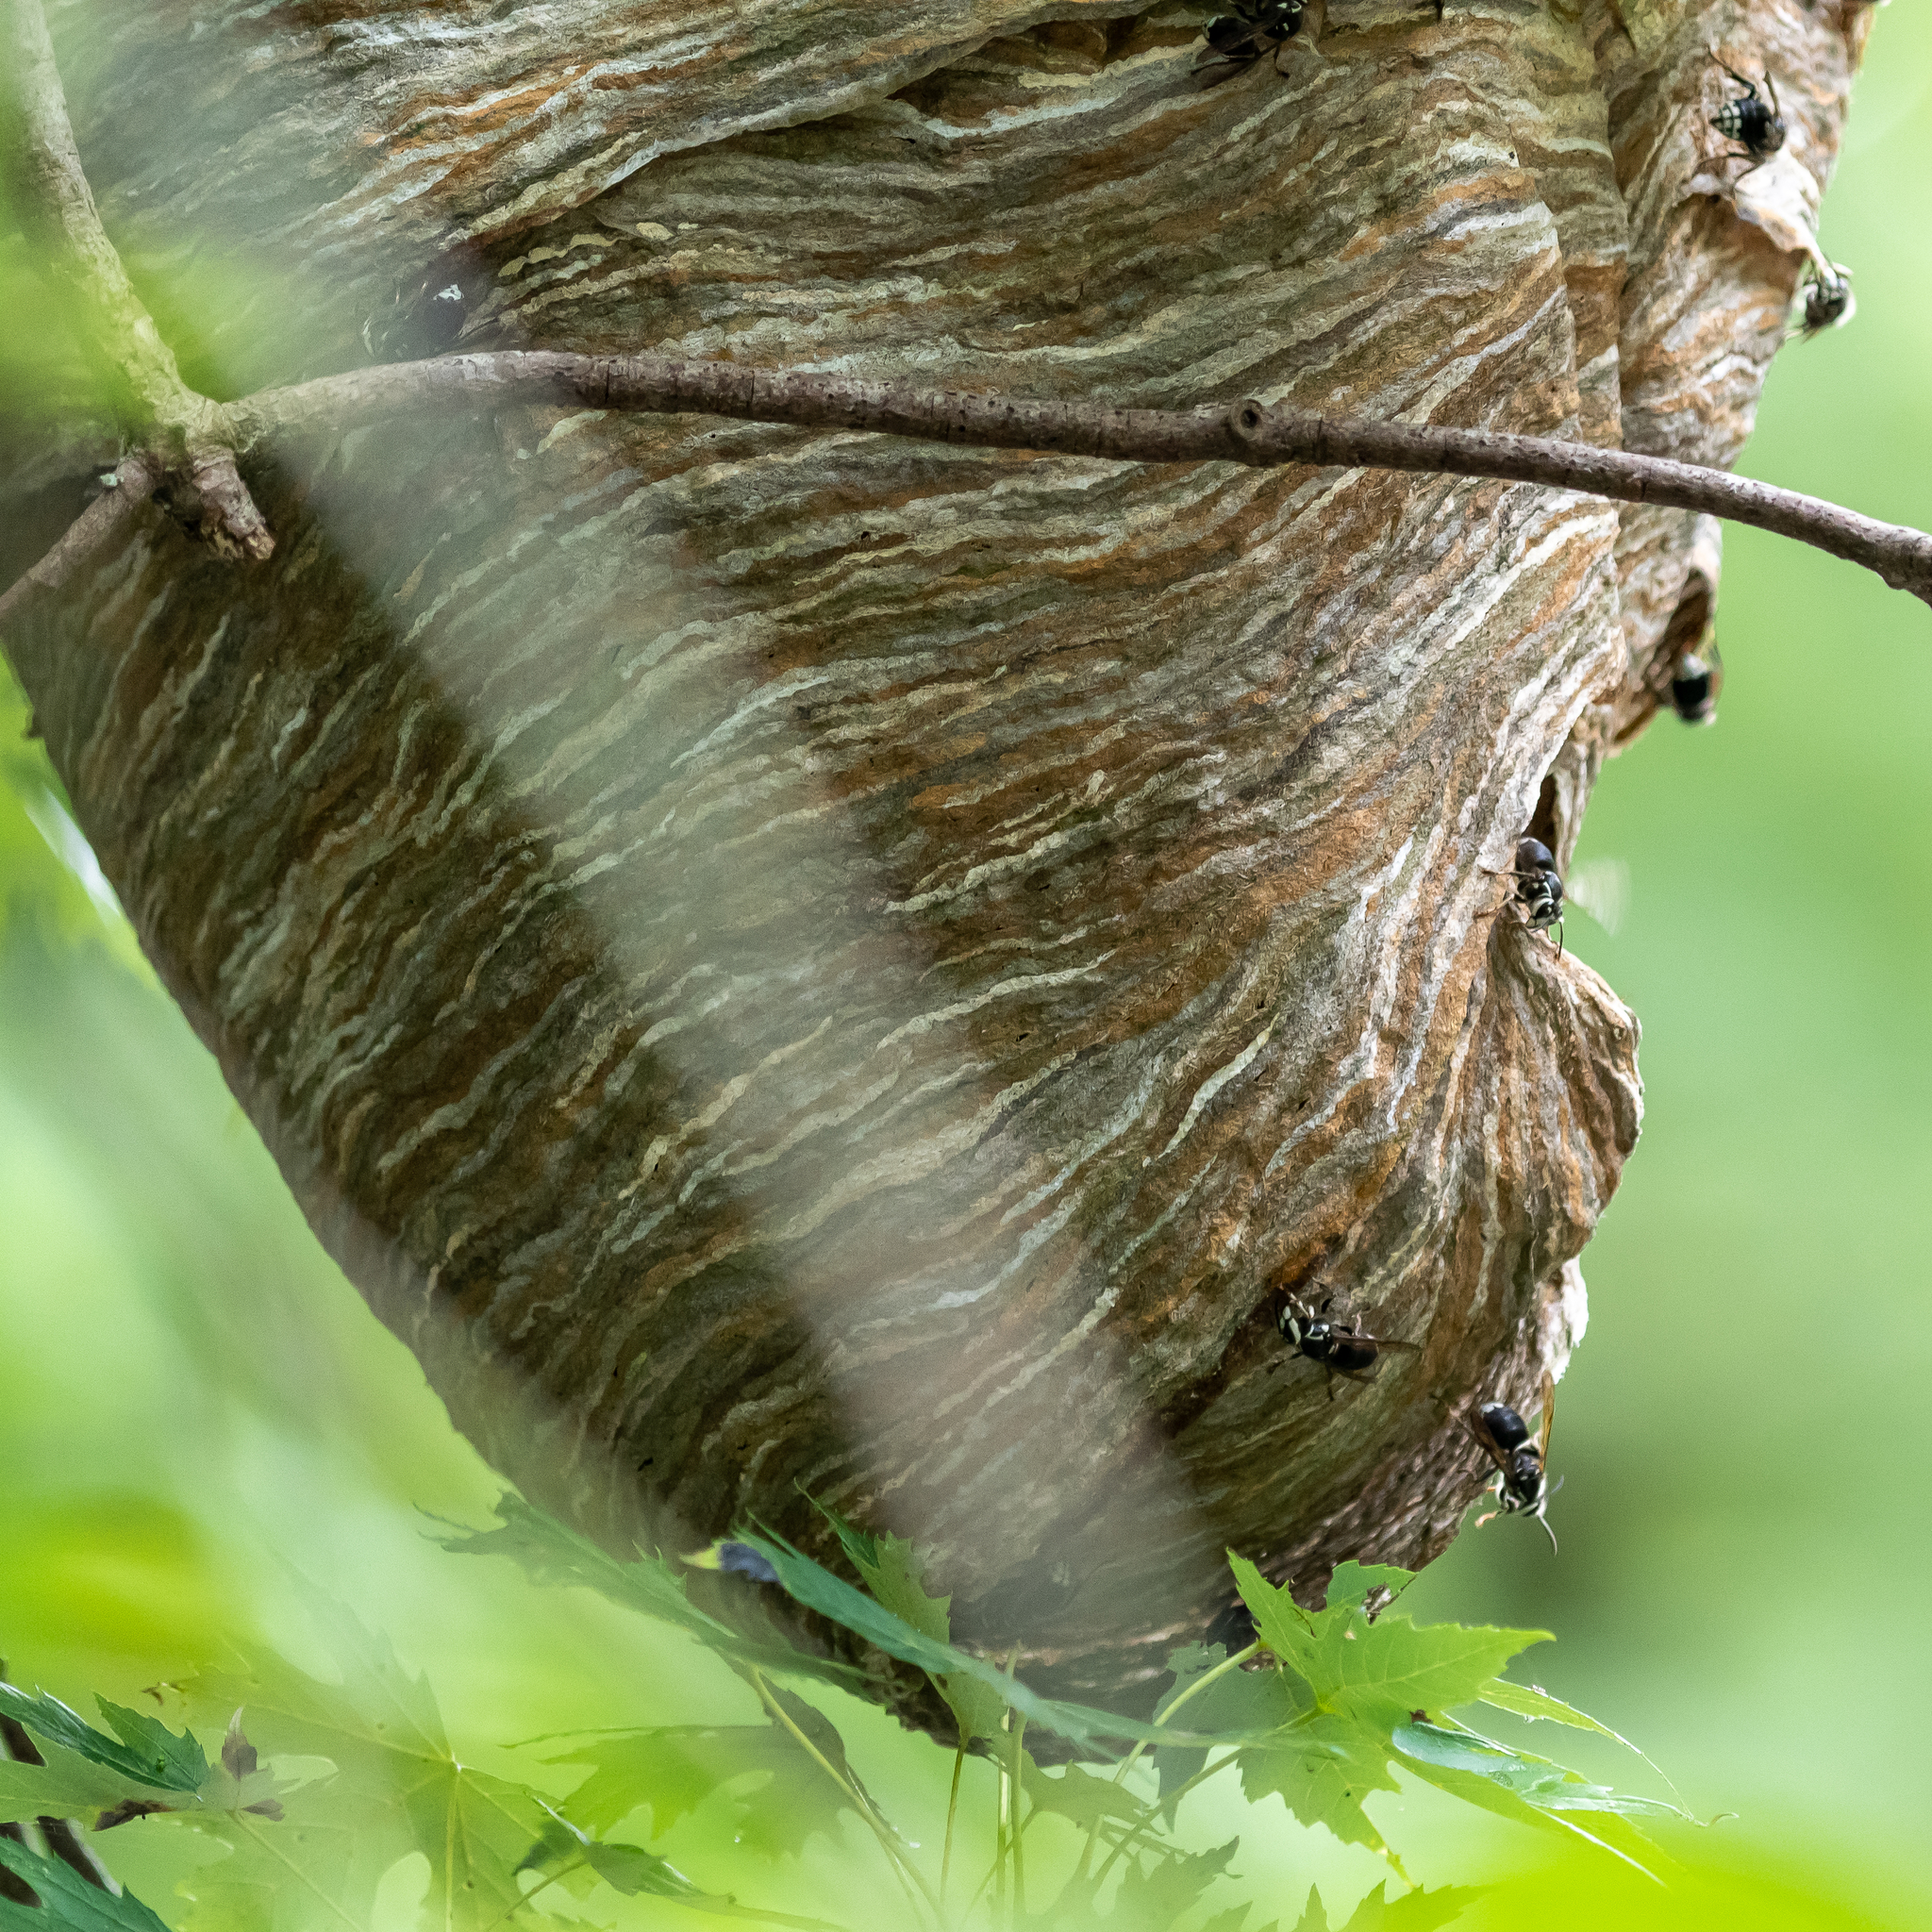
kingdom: Animalia
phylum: Arthropoda
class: Insecta
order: Hymenoptera
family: Vespidae
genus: Dolichovespula
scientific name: Dolichovespula maculata
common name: Bald-faced hornet
